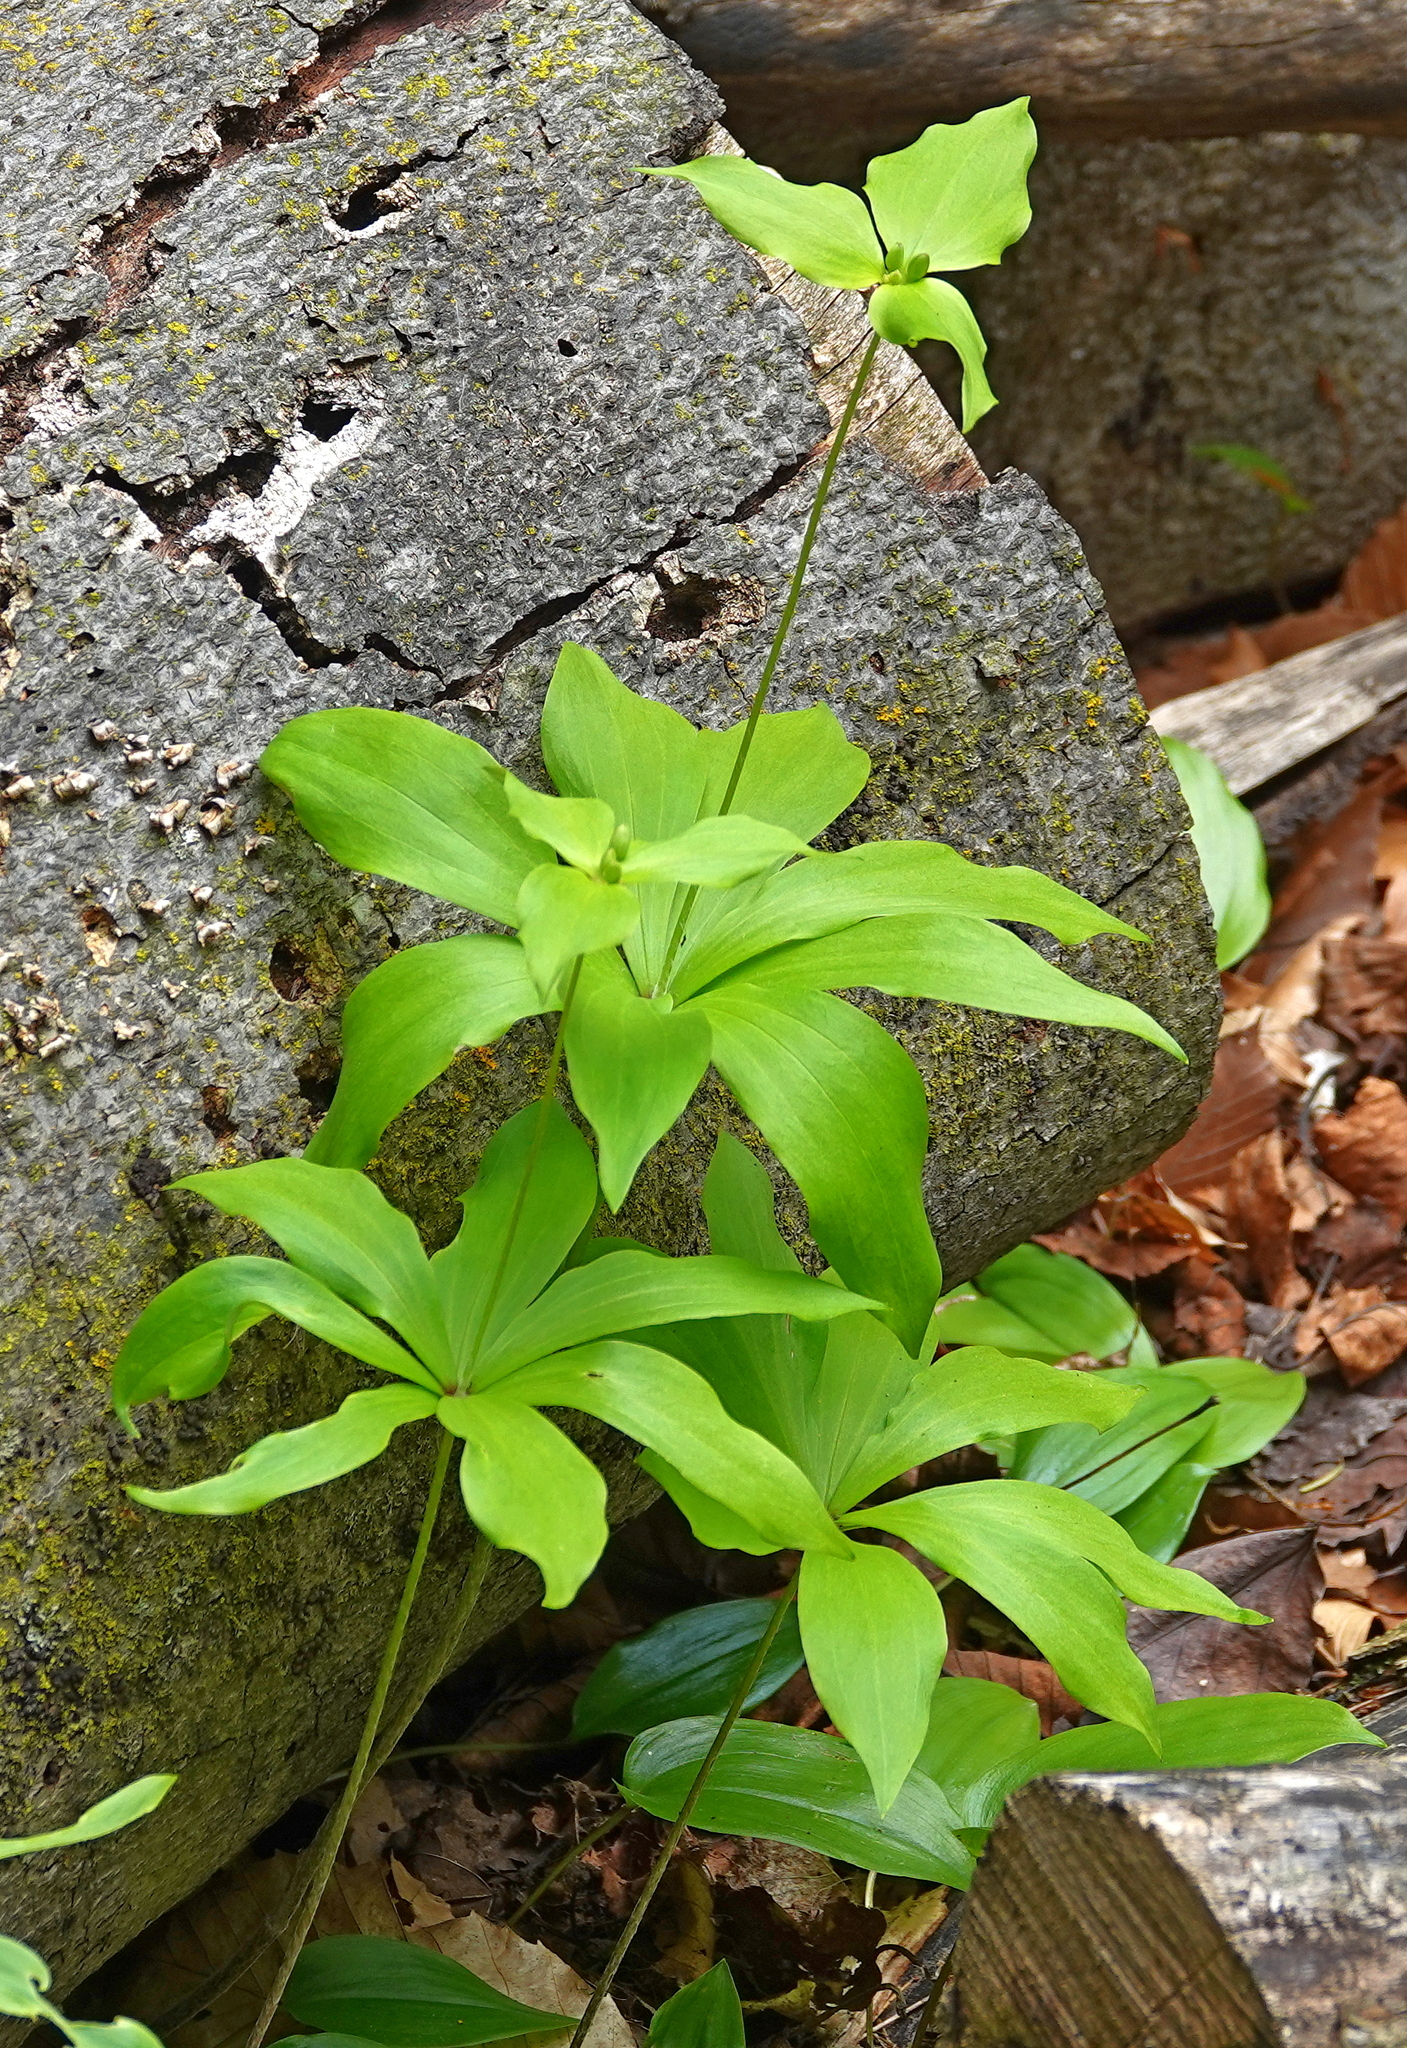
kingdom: Plantae
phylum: Tracheophyta
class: Liliopsida
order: Liliales
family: Liliaceae
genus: Medeola
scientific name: Medeola virginiana
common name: Indian cucumber-root
